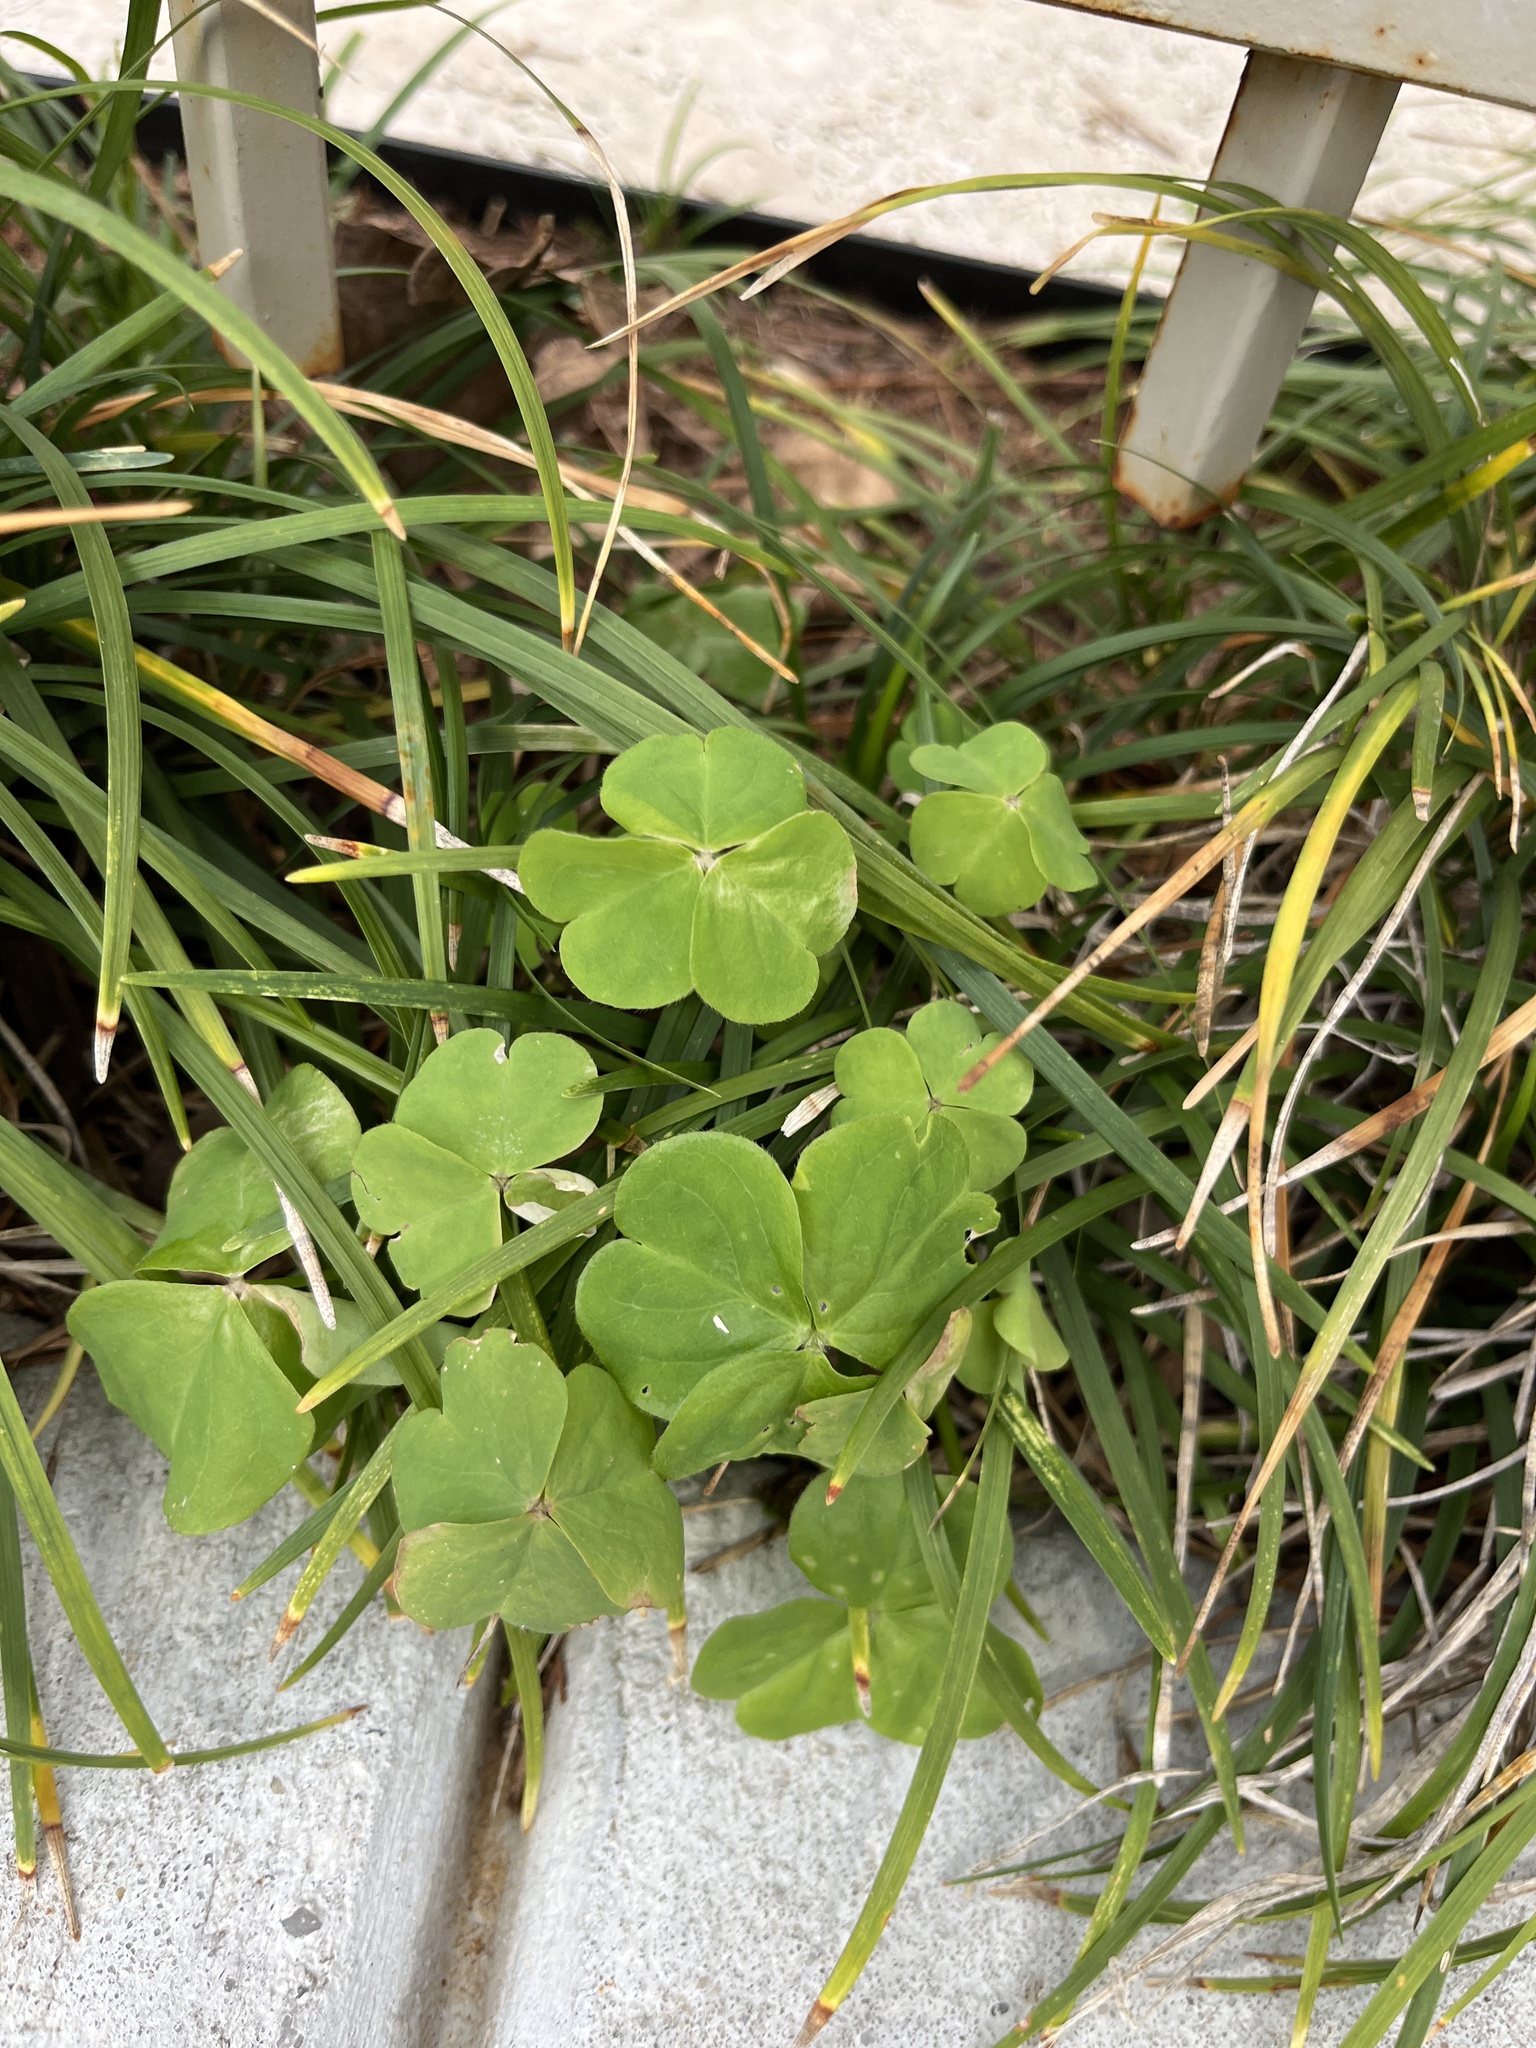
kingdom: Plantae
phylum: Tracheophyta
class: Magnoliopsida
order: Oxalidales
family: Oxalidaceae
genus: Oxalis
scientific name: Oxalis debilis
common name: Large-flowered pink-sorrel
